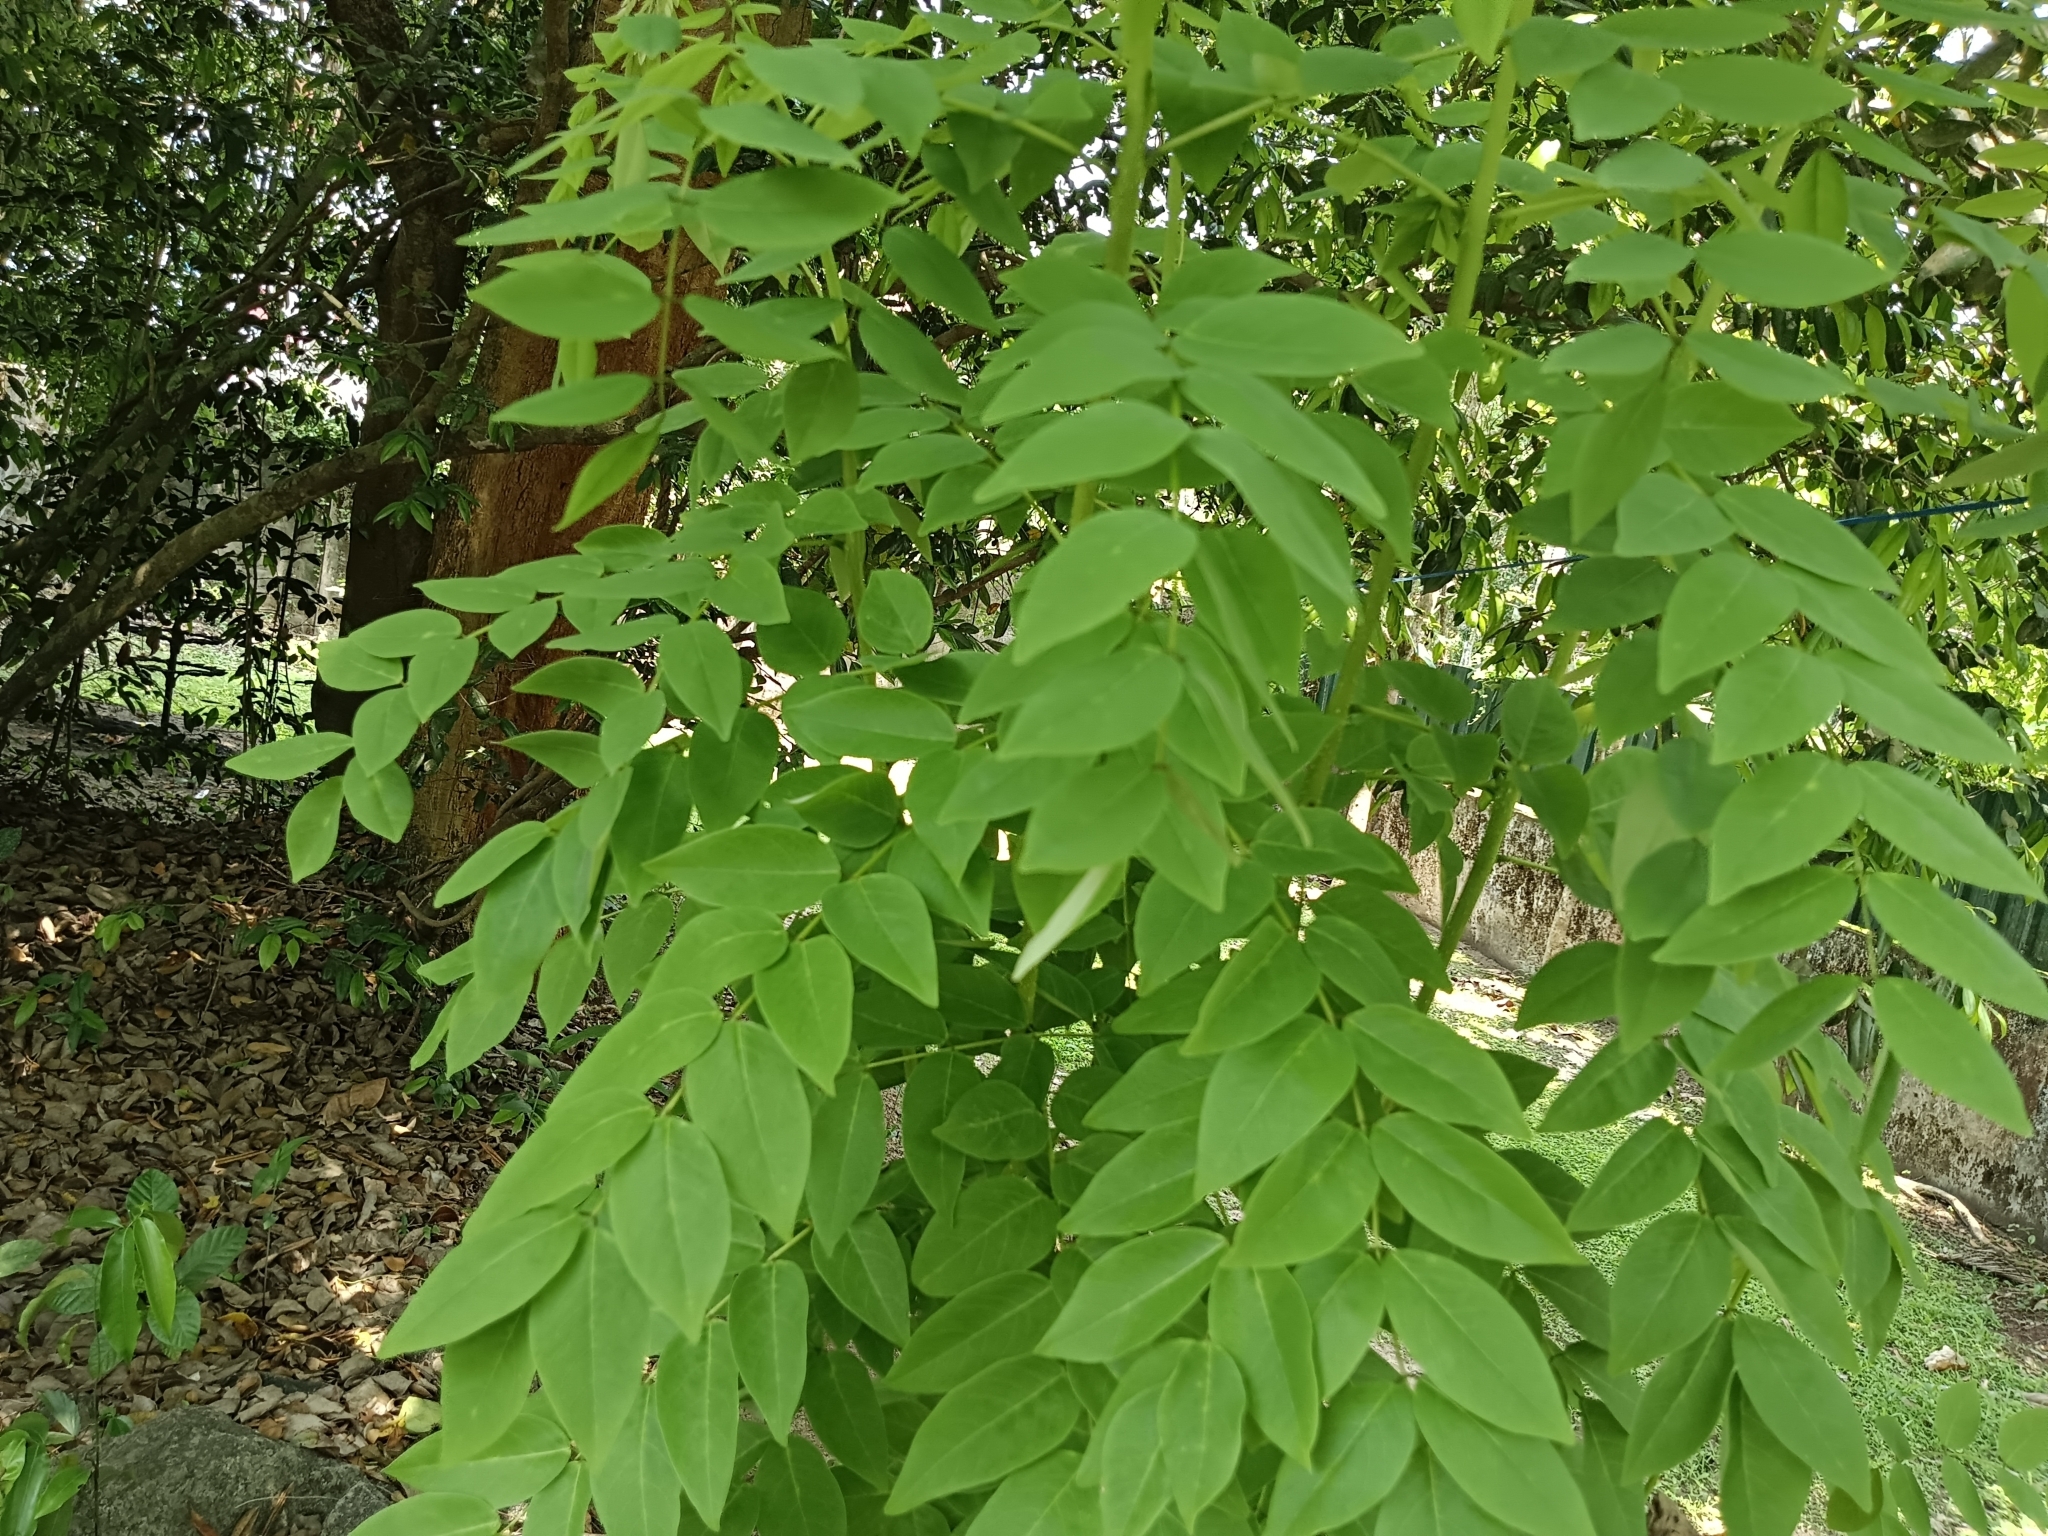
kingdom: Plantae
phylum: Tracheophyta
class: Magnoliopsida
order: Fabales
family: Fabaceae
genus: Gliricidia
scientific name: Gliricidia sepium
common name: Quickstick
